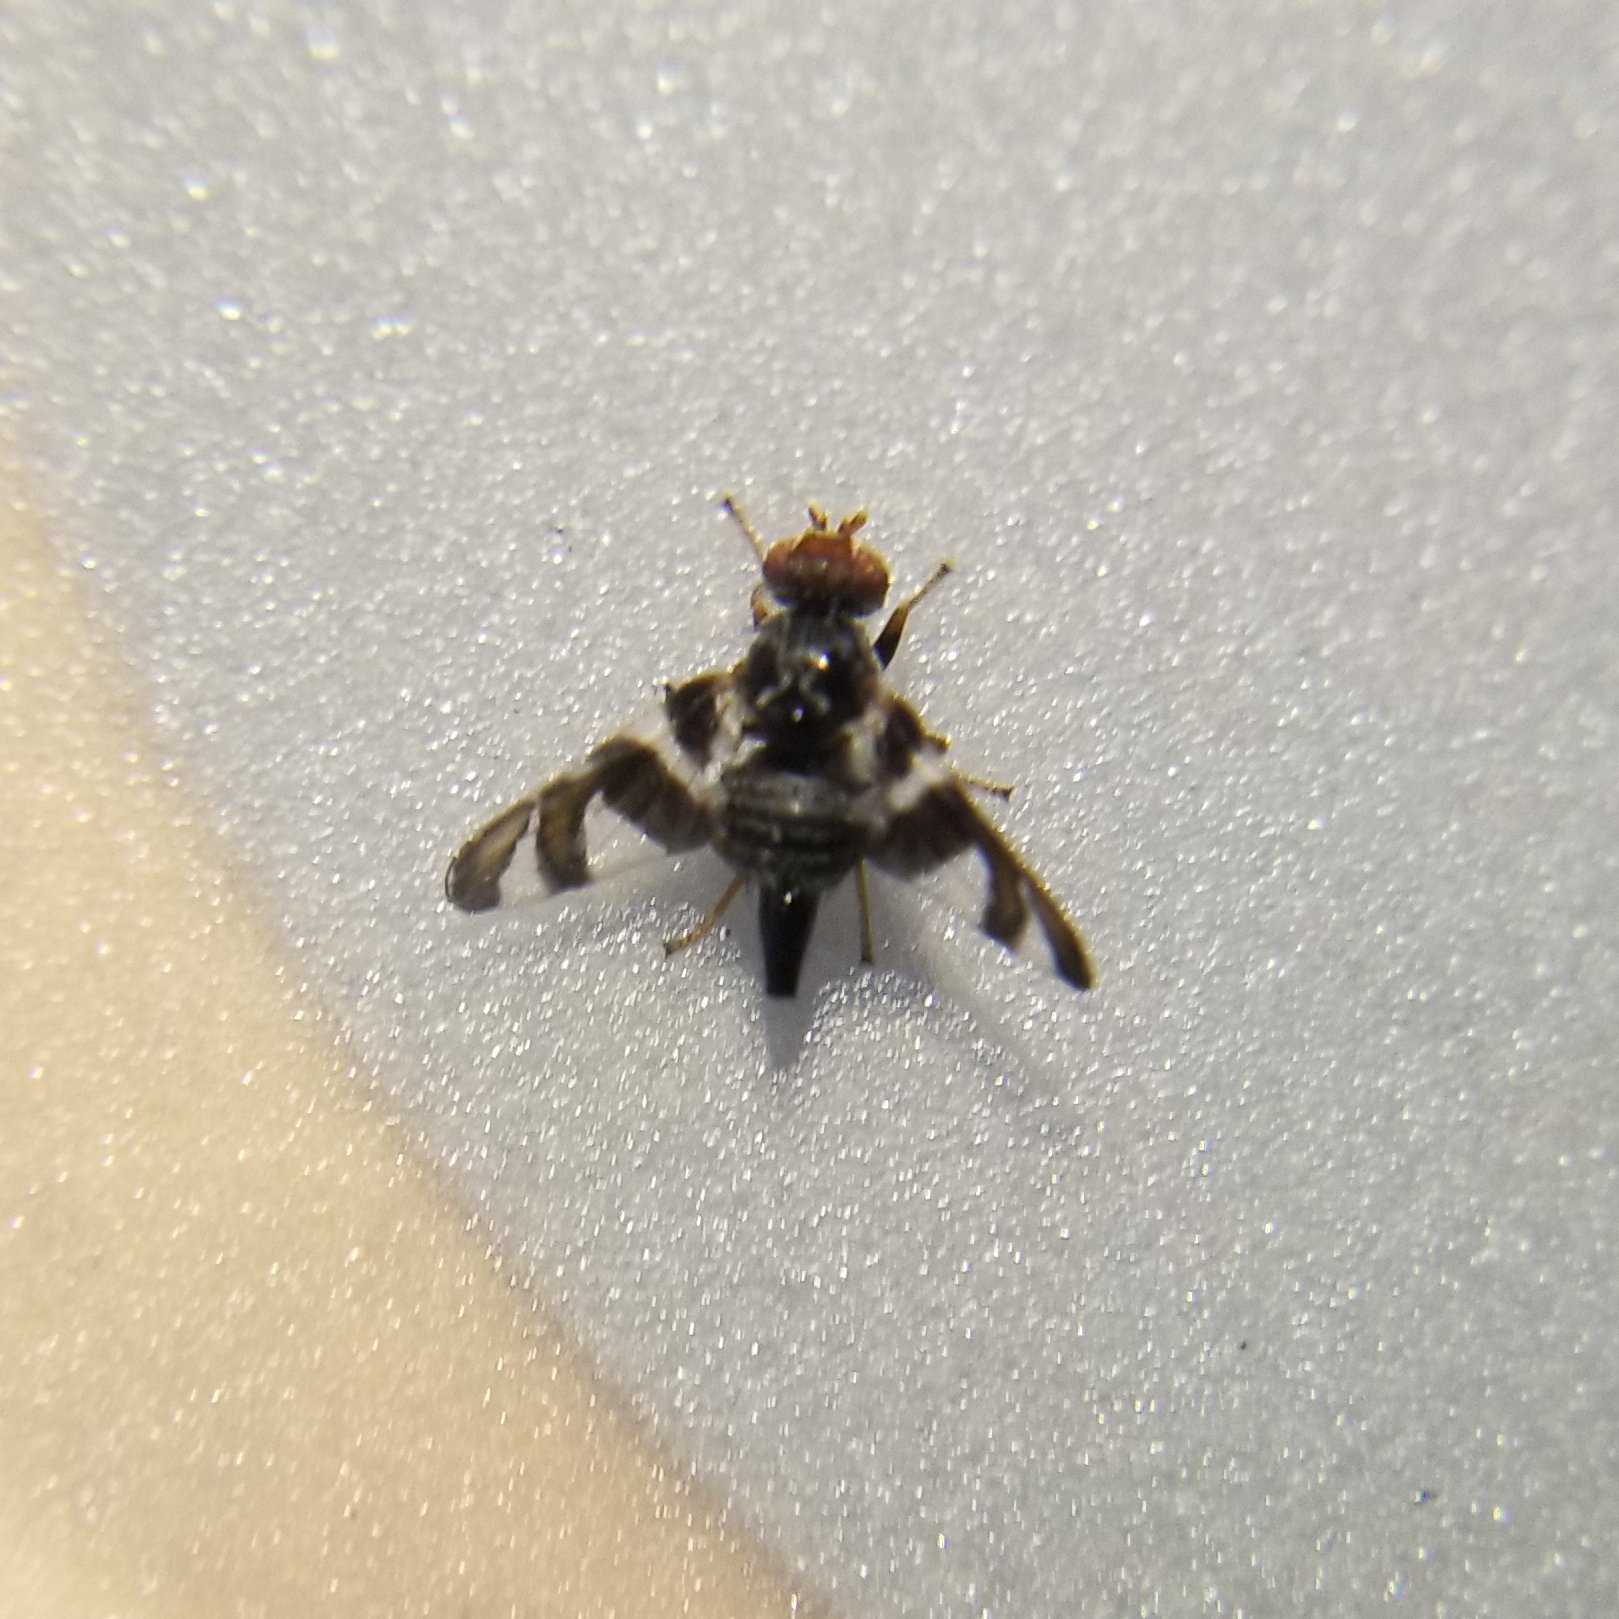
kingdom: Animalia
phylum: Arthropoda
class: Insecta
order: Diptera
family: Tephritidae
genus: Procecidochares
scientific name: Procecidochares atra
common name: Goldenrod brussels sprout gall fly
